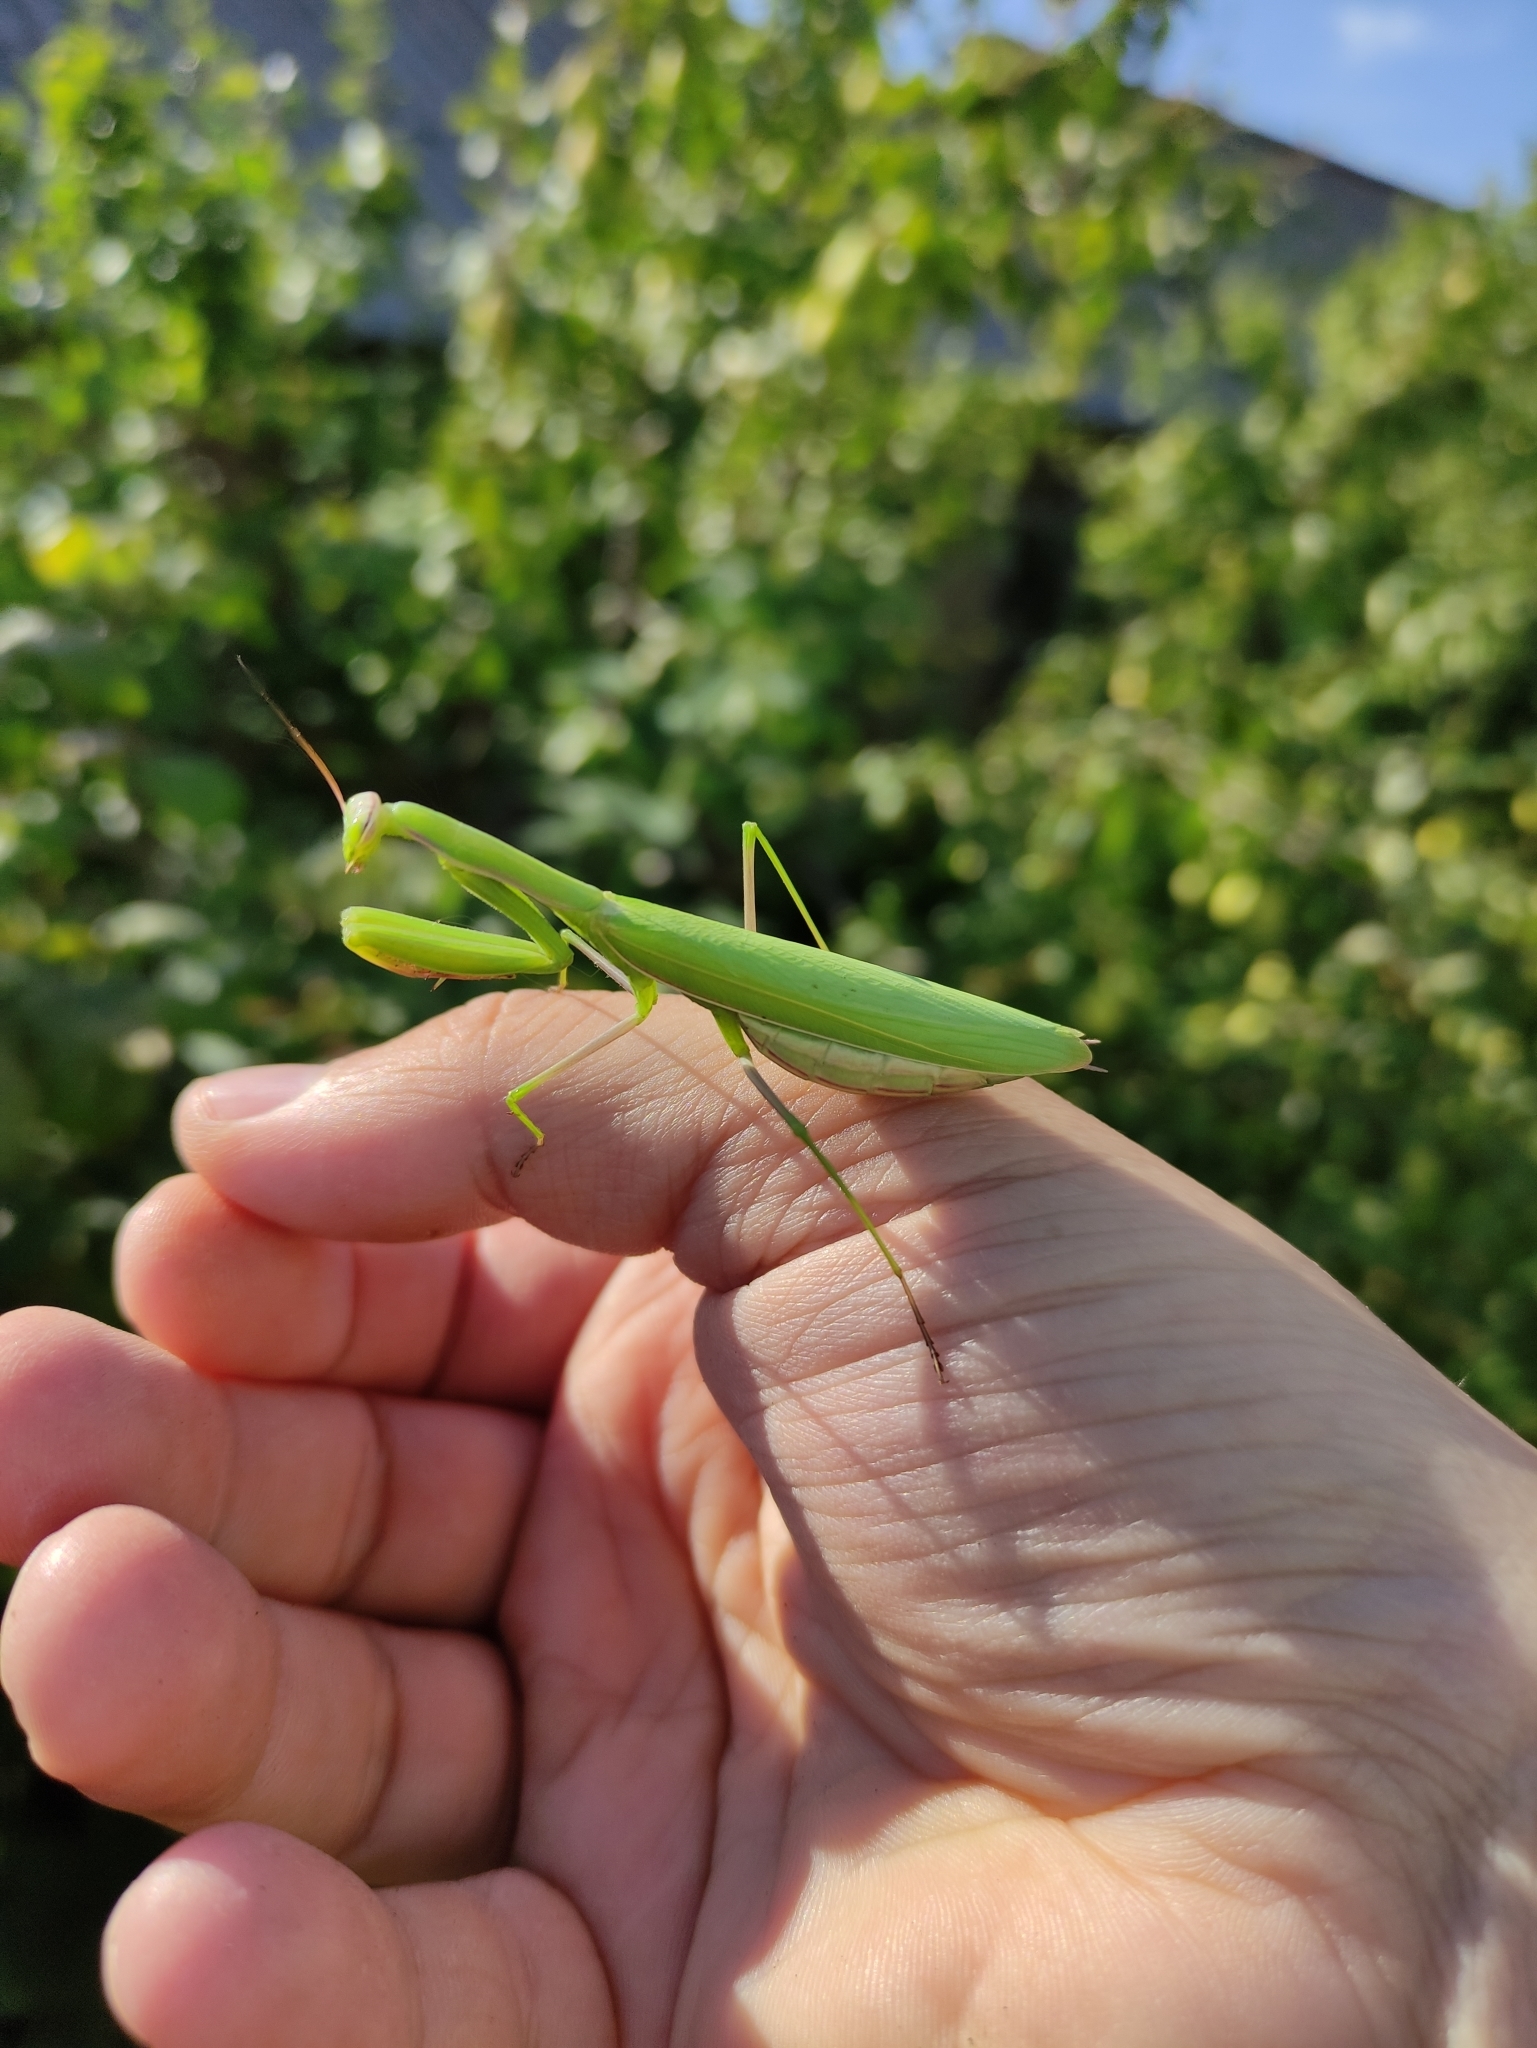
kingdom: Animalia
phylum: Arthropoda
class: Insecta
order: Mantodea
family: Mantidae
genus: Mantis
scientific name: Mantis religiosa
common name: Praying mantis
